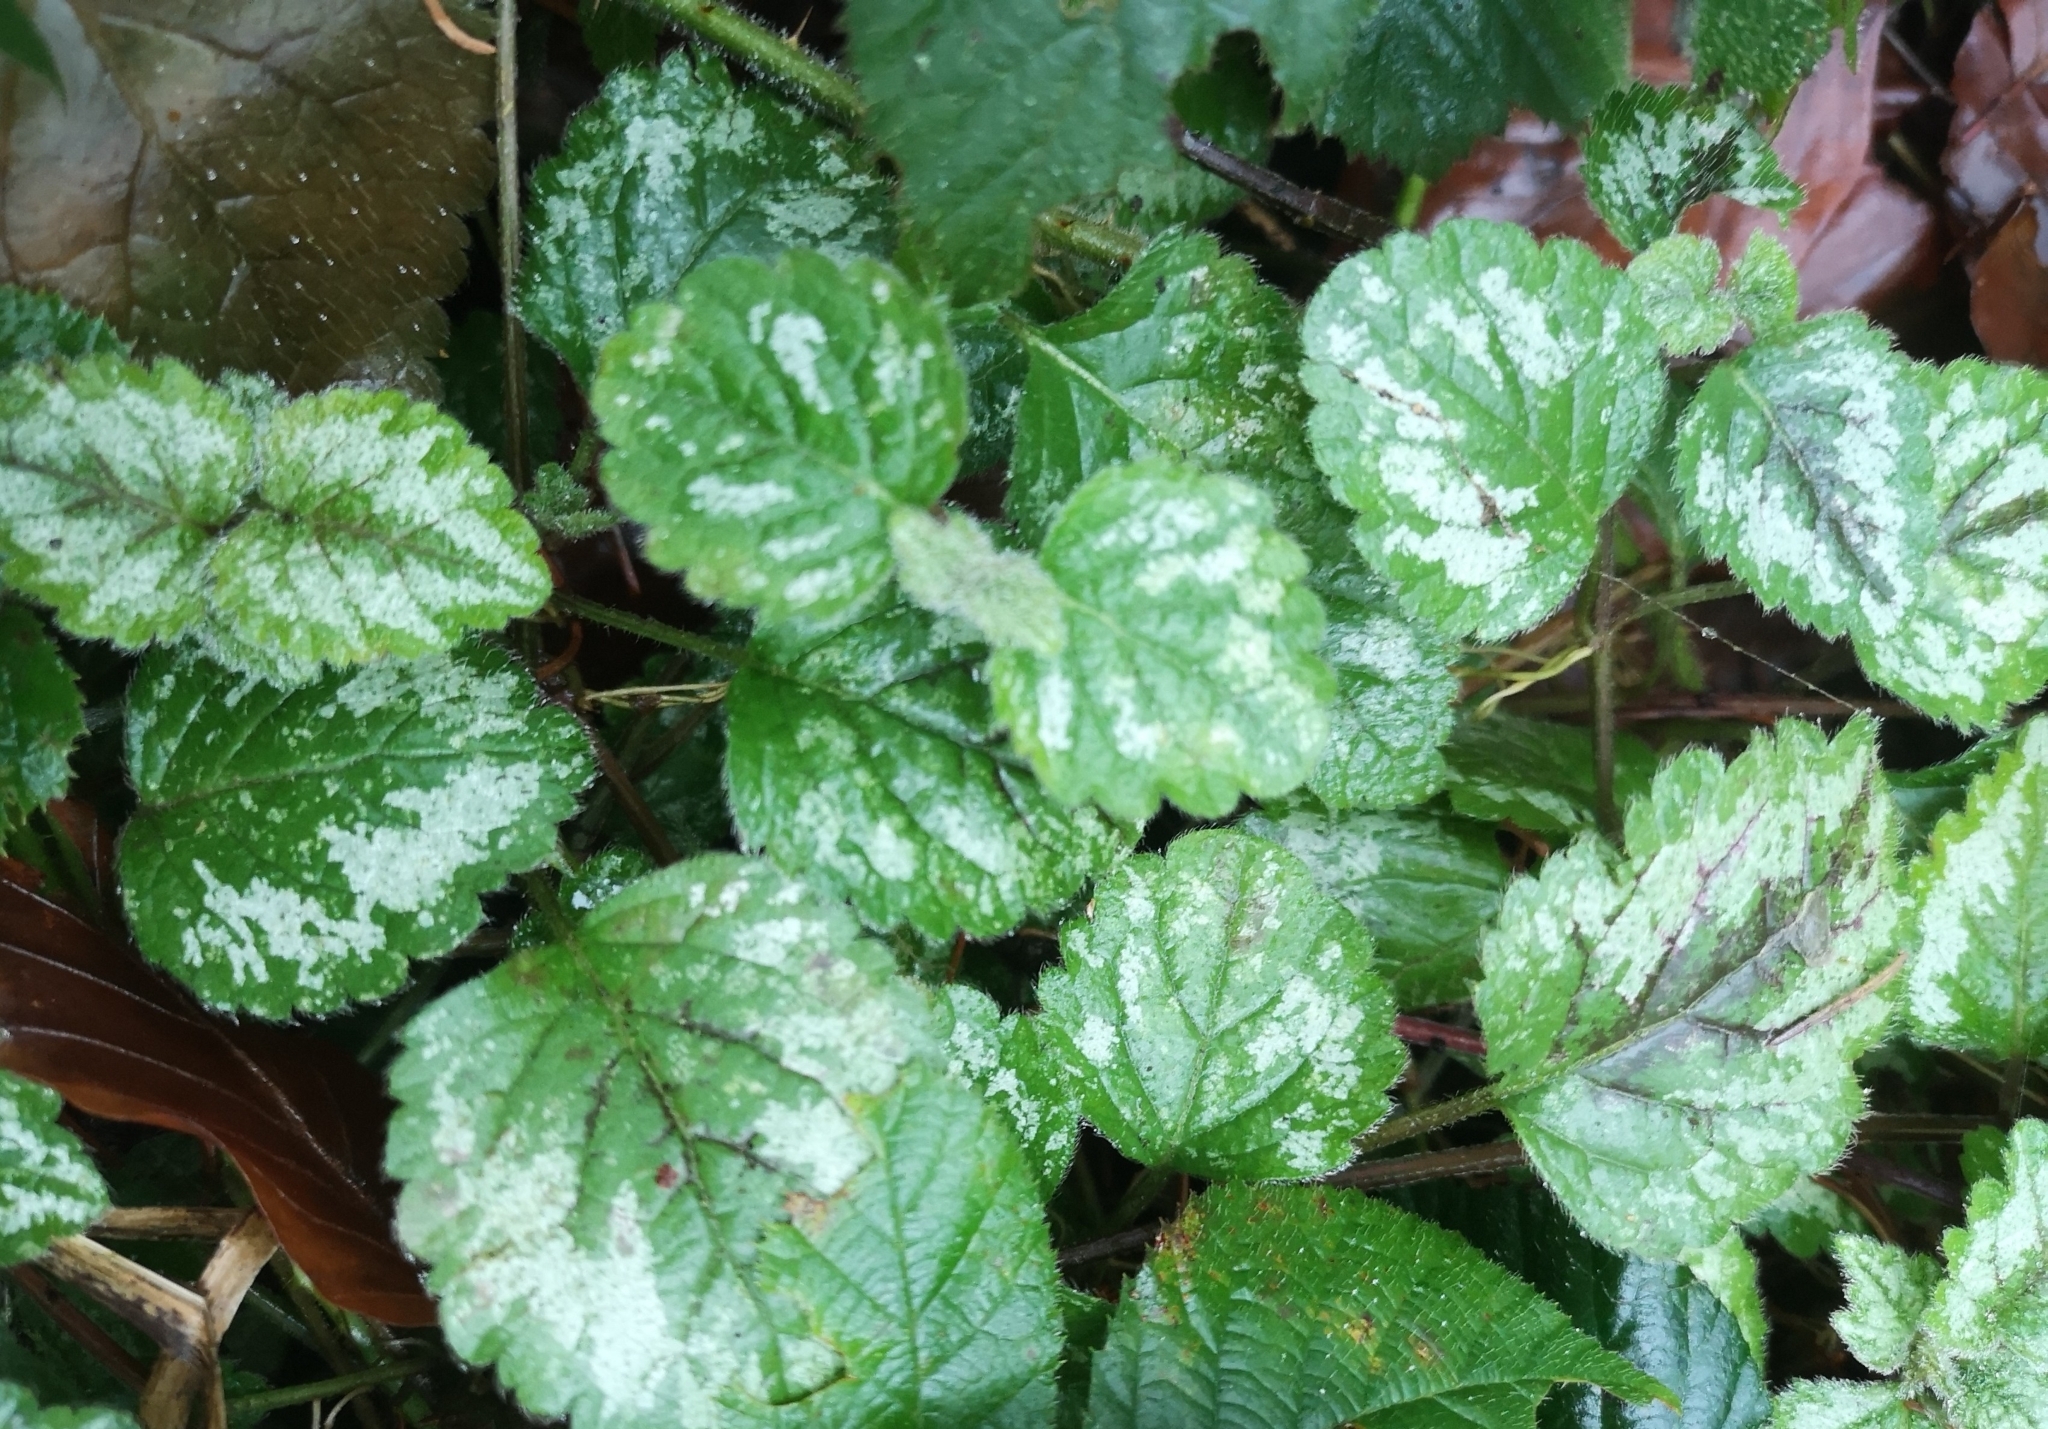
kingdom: Plantae
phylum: Tracheophyta
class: Magnoliopsida
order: Lamiales
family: Lamiaceae
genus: Lamium
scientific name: Lamium galeobdolon
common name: Yellow archangel
